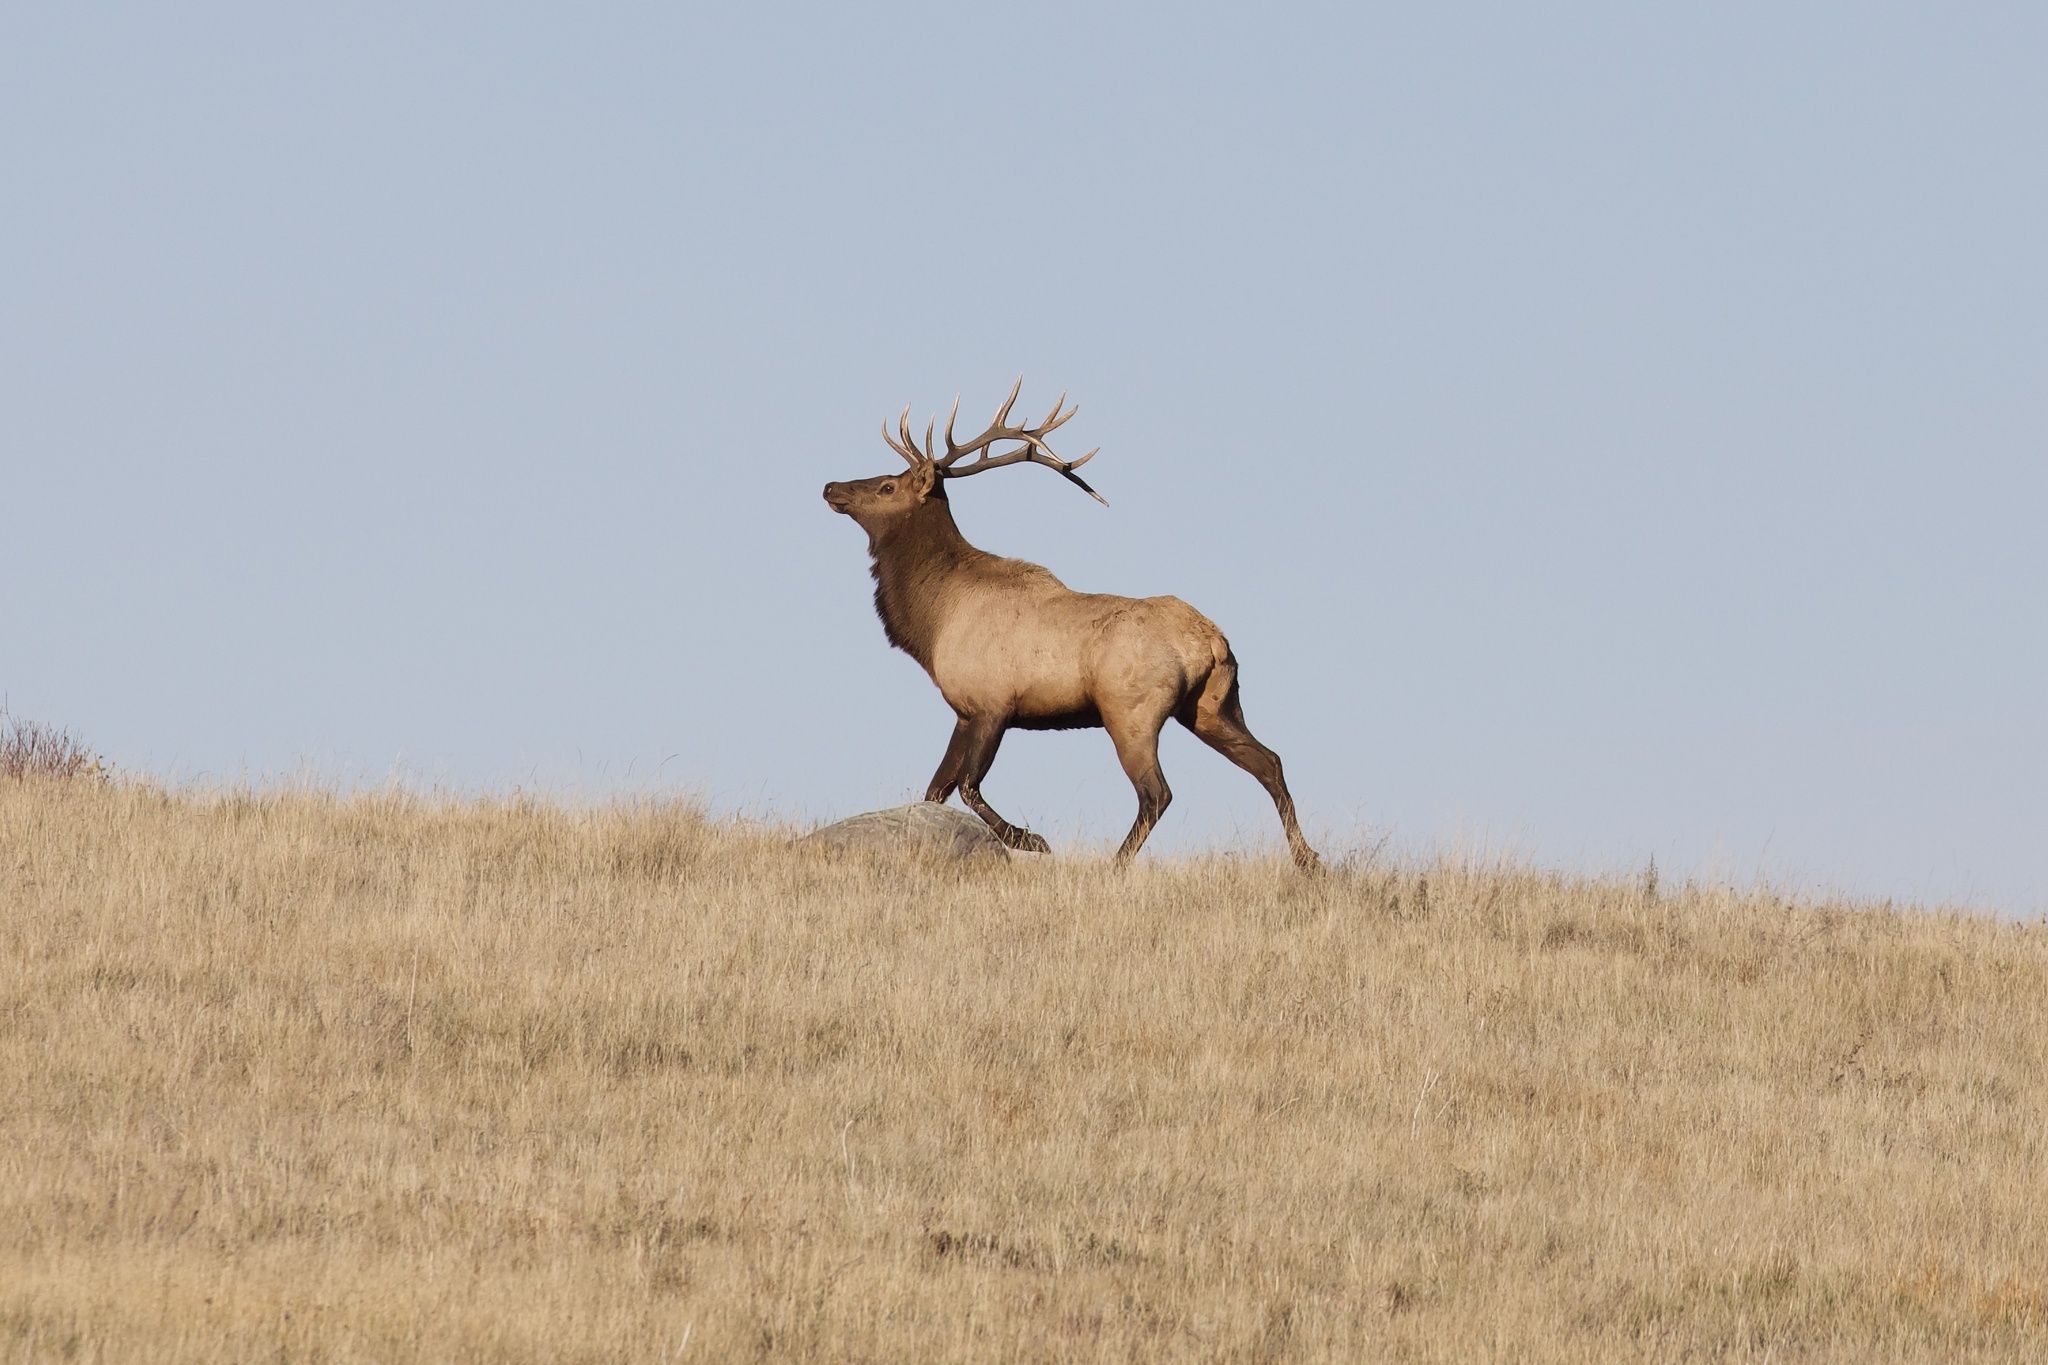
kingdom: Animalia
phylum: Chordata
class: Mammalia
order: Artiodactyla
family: Cervidae
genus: Cervus
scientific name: Cervus elaphus
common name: Red deer
